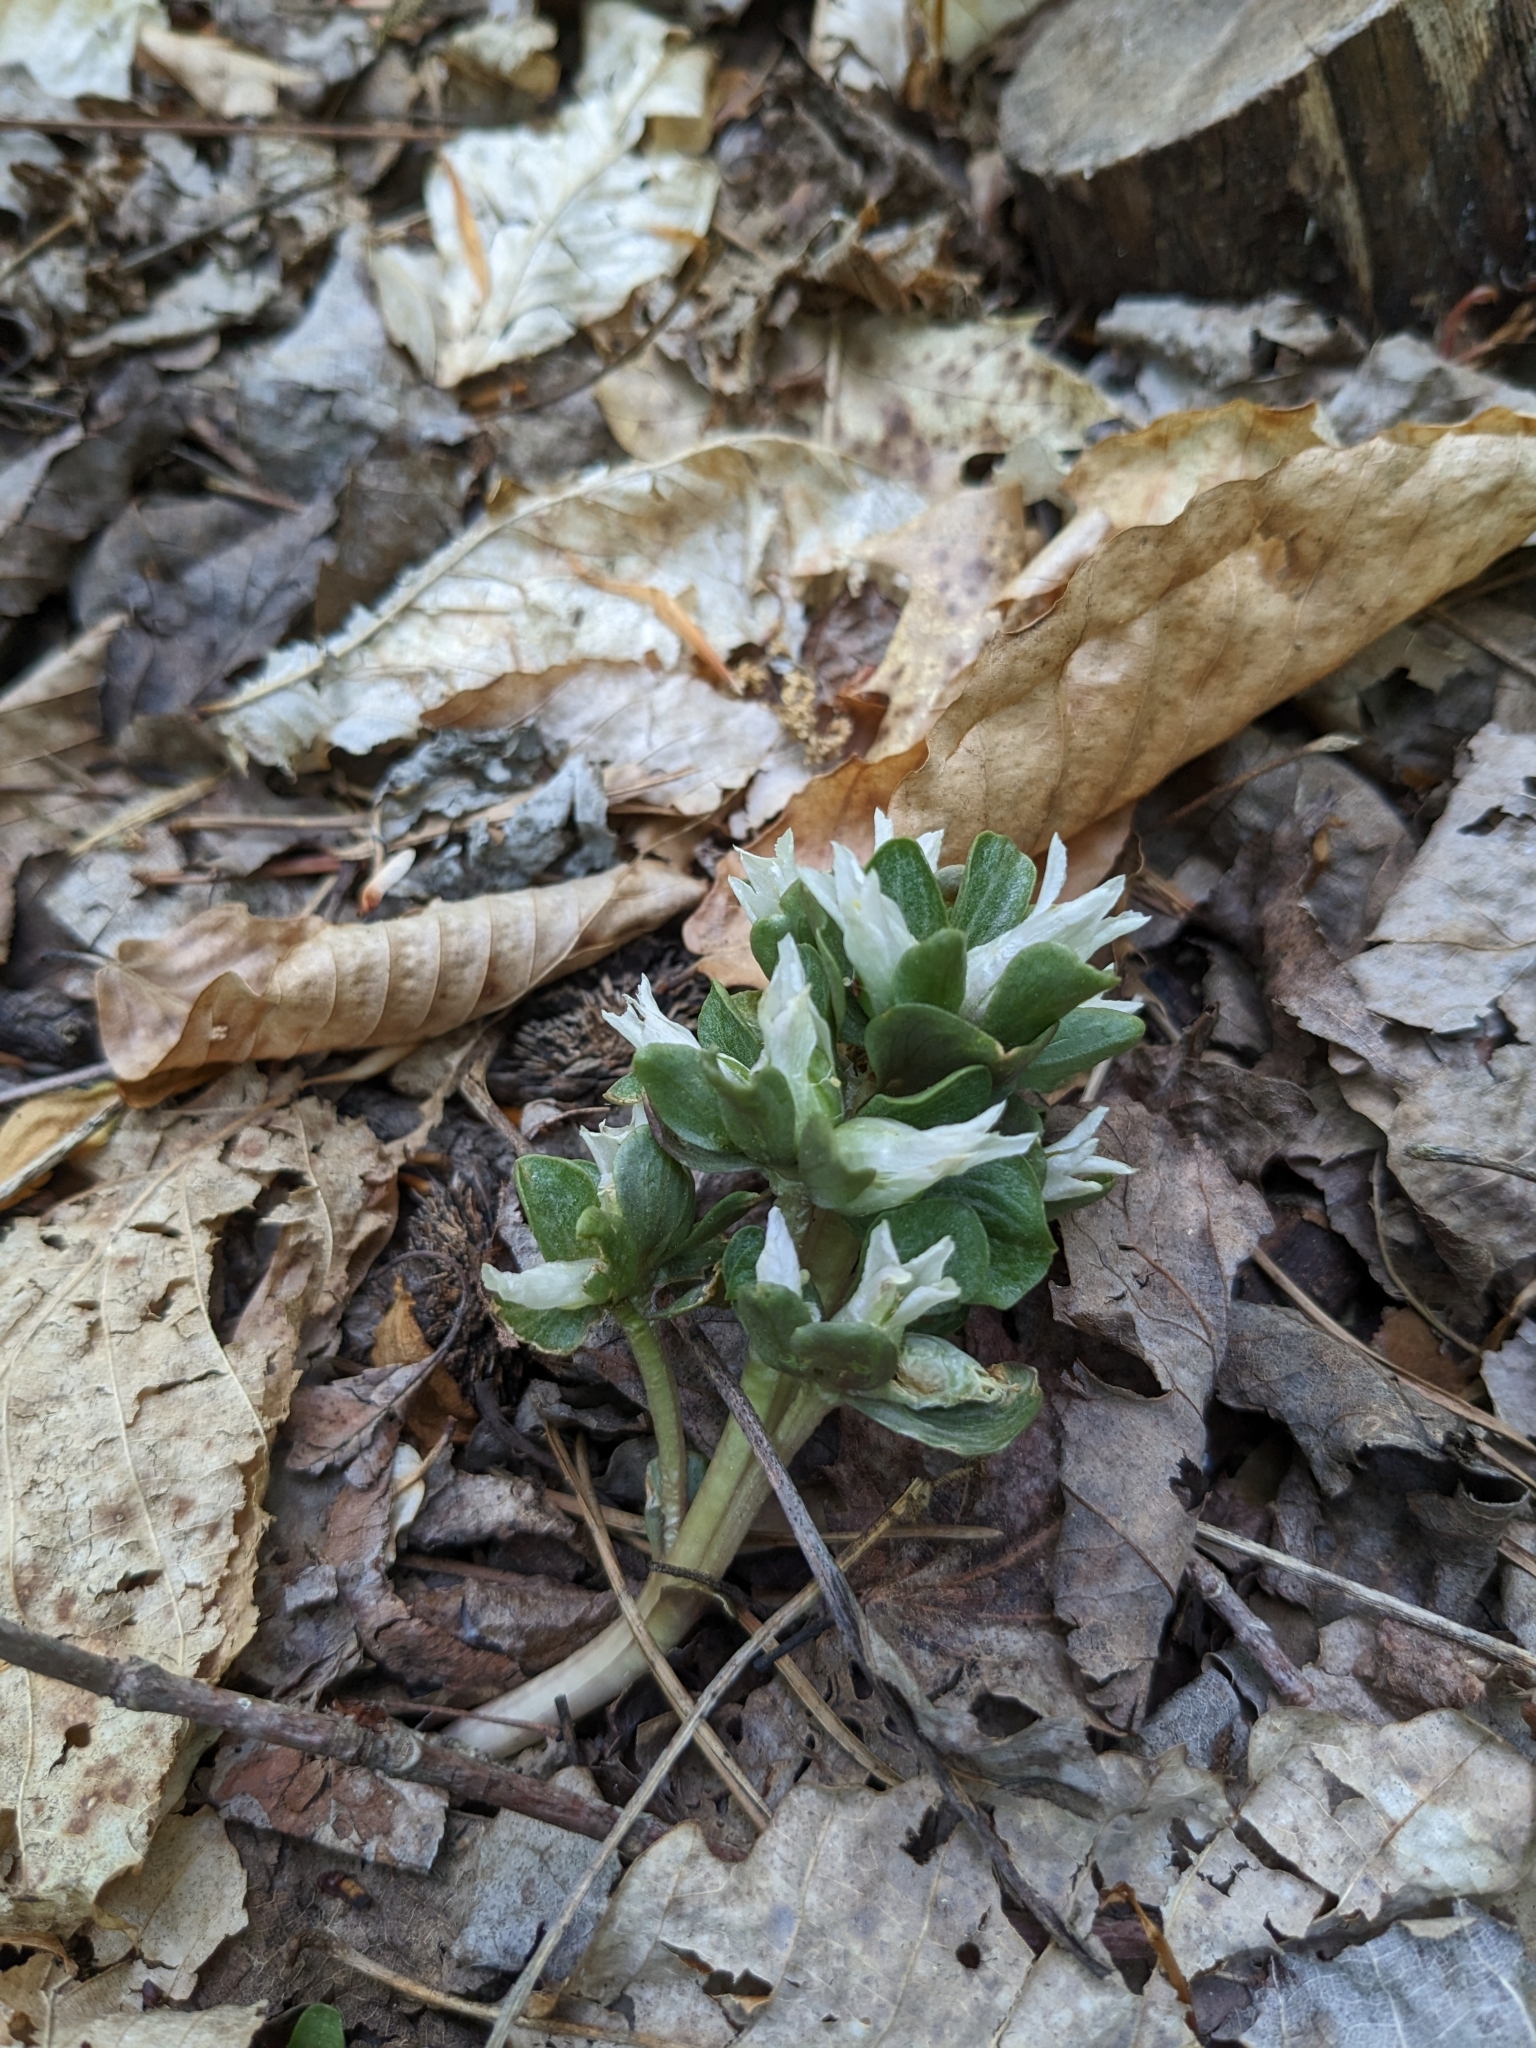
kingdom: Plantae
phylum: Tracheophyta
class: Magnoliopsida
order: Gentianales
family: Gentianaceae
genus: Obolaria
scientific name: Obolaria virginica
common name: Pennywort
